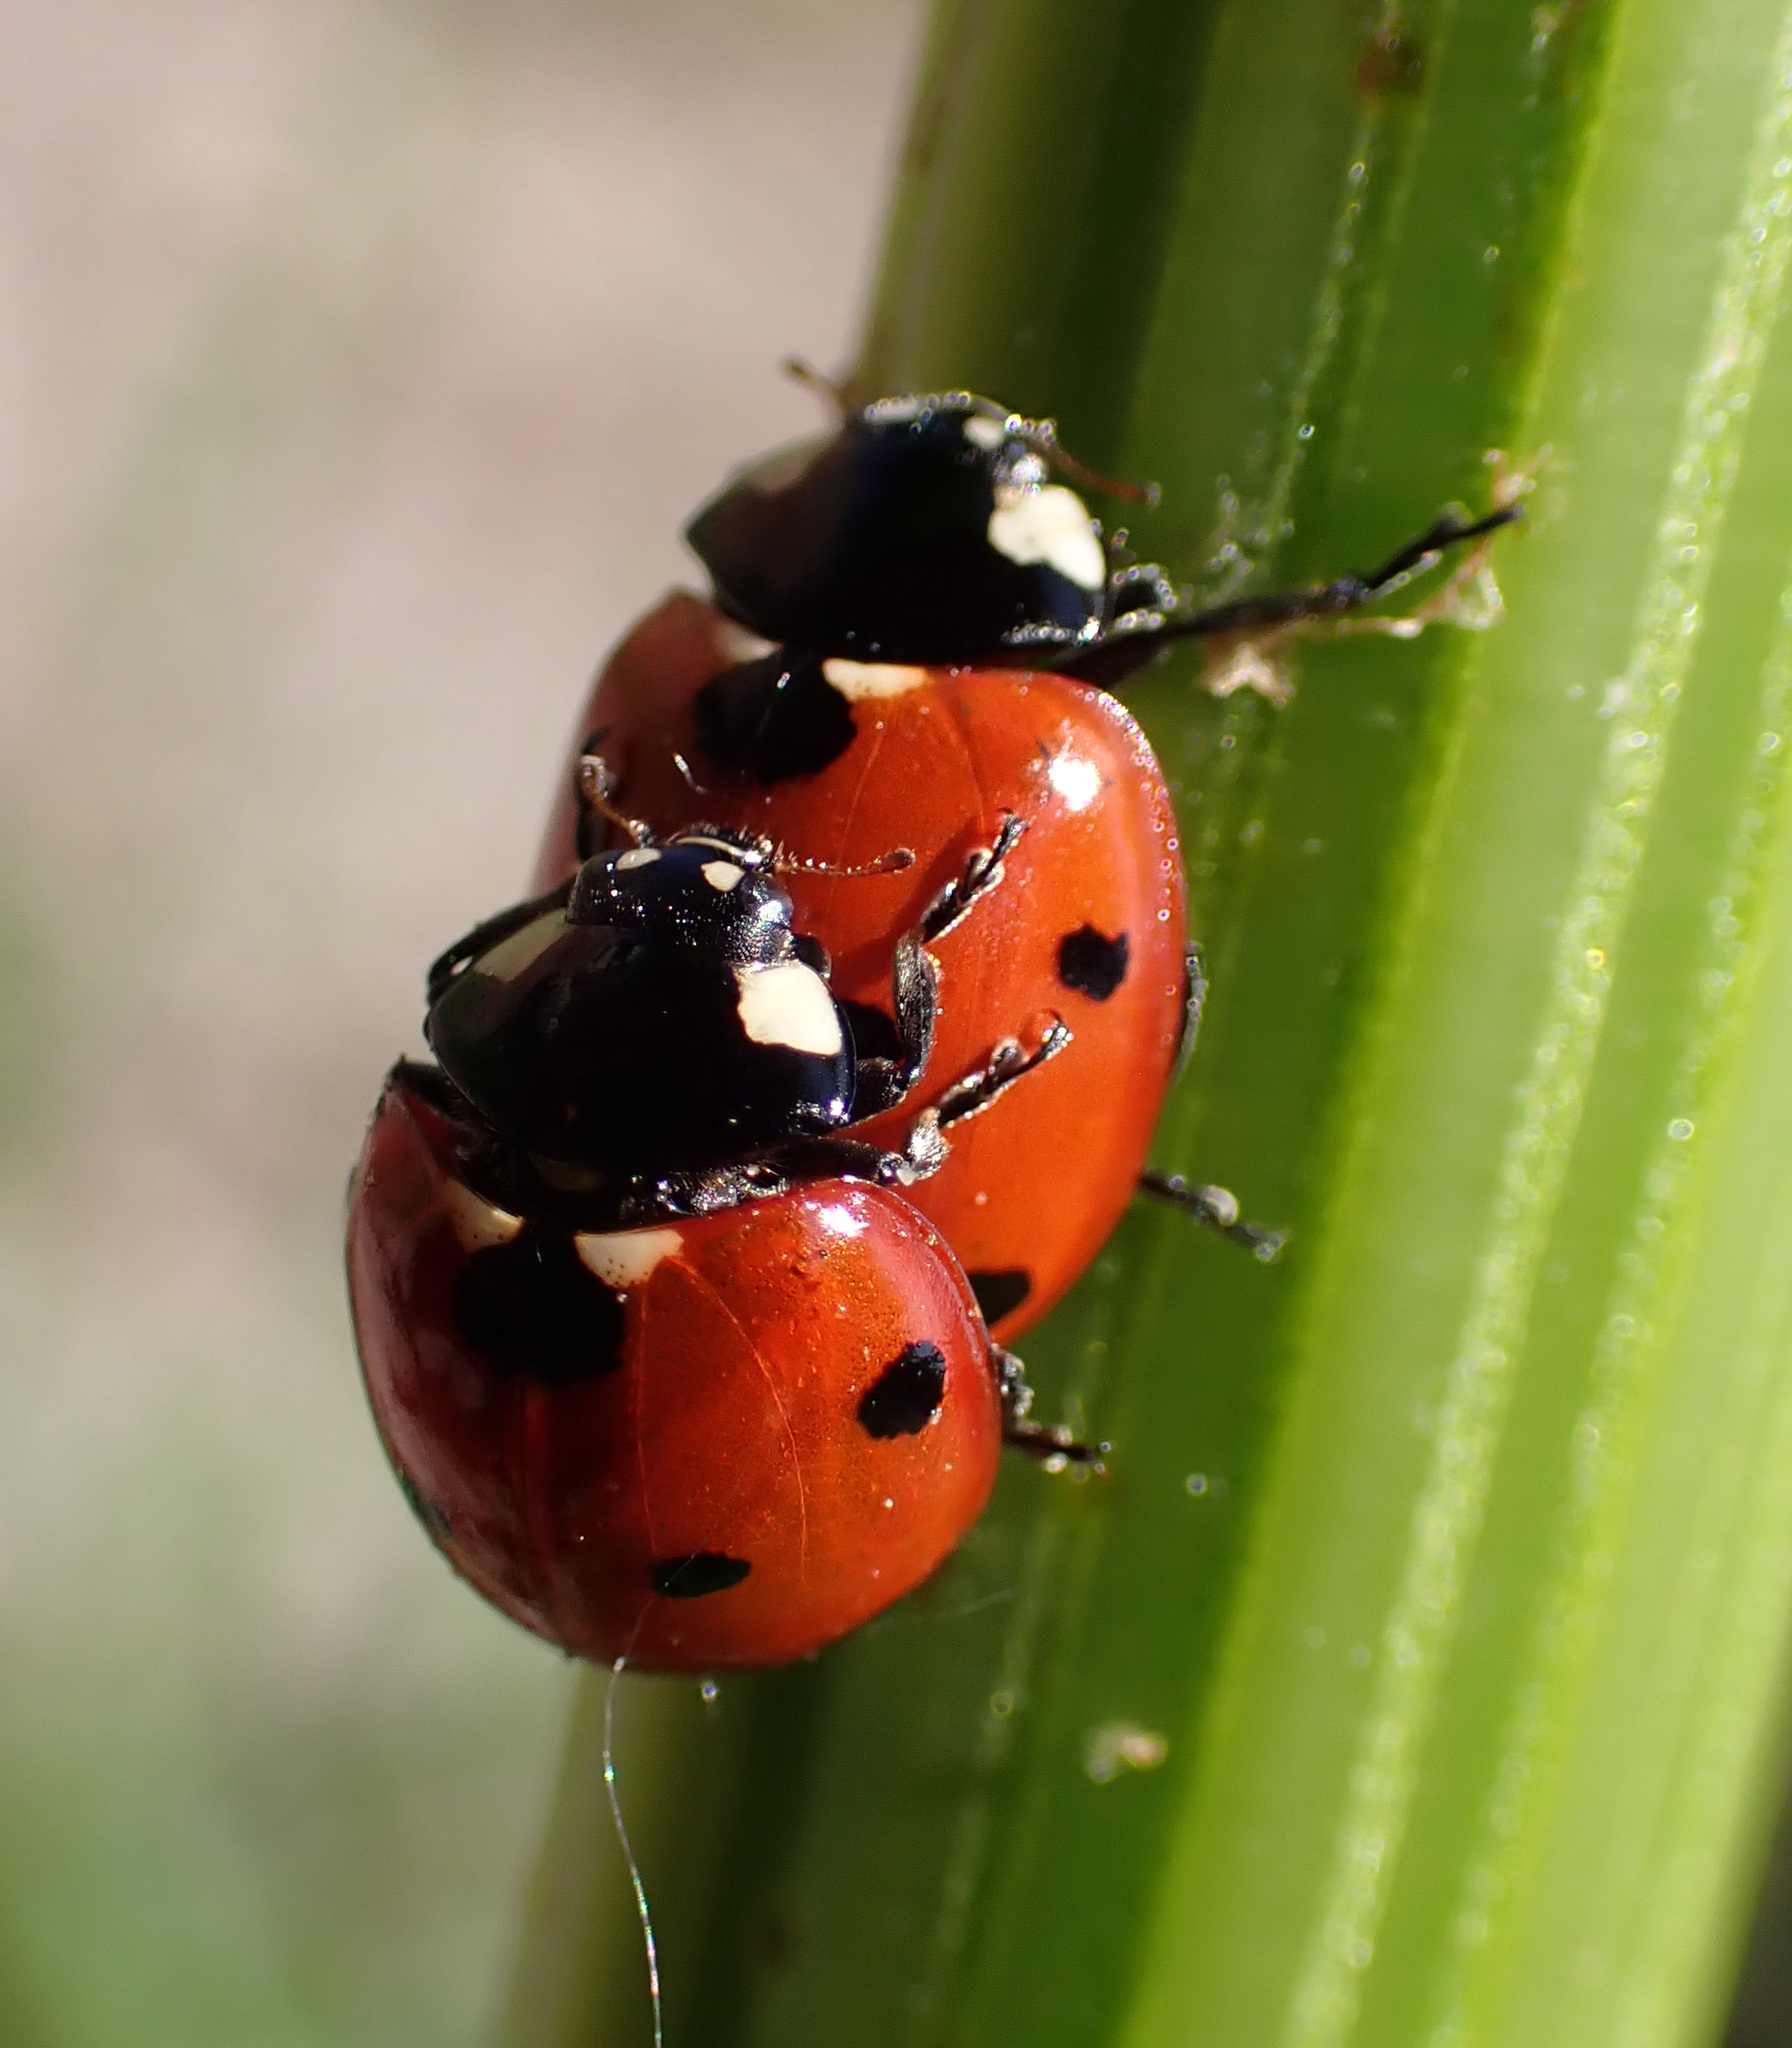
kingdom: Animalia
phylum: Arthropoda
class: Insecta
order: Coleoptera
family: Coccinellidae
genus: Coccinella
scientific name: Coccinella septempunctata
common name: Sevenspotted lady beetle
